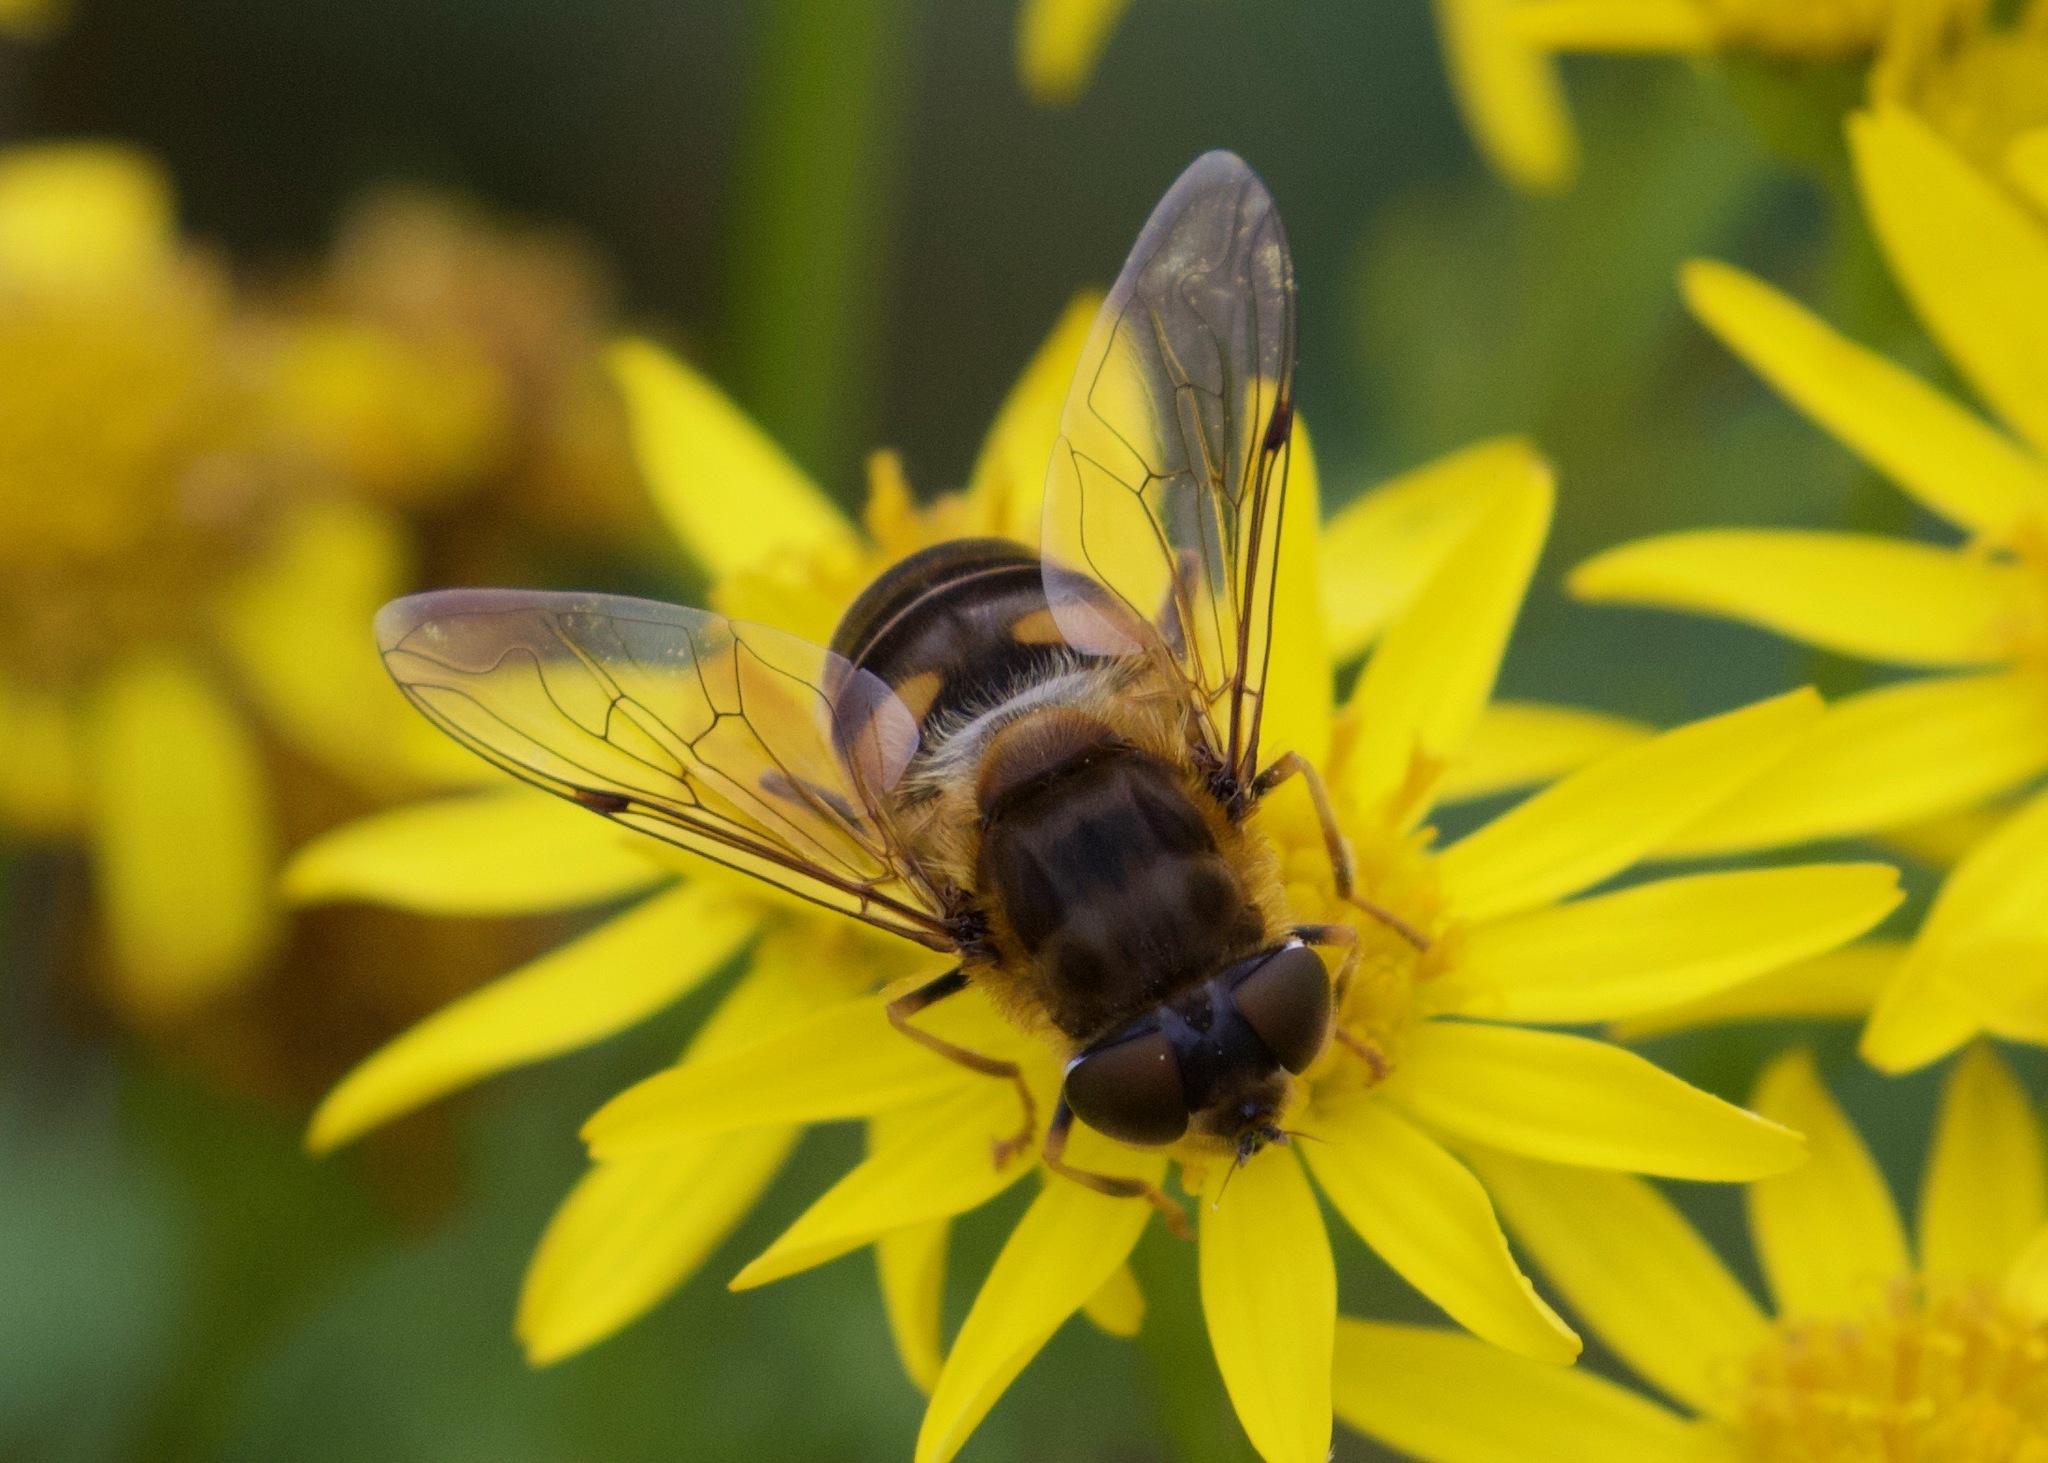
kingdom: Animalia
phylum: Arthropoda
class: Insecta
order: Diptera
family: Syrphidae
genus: Eristalis
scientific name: Eristalis pertinax
